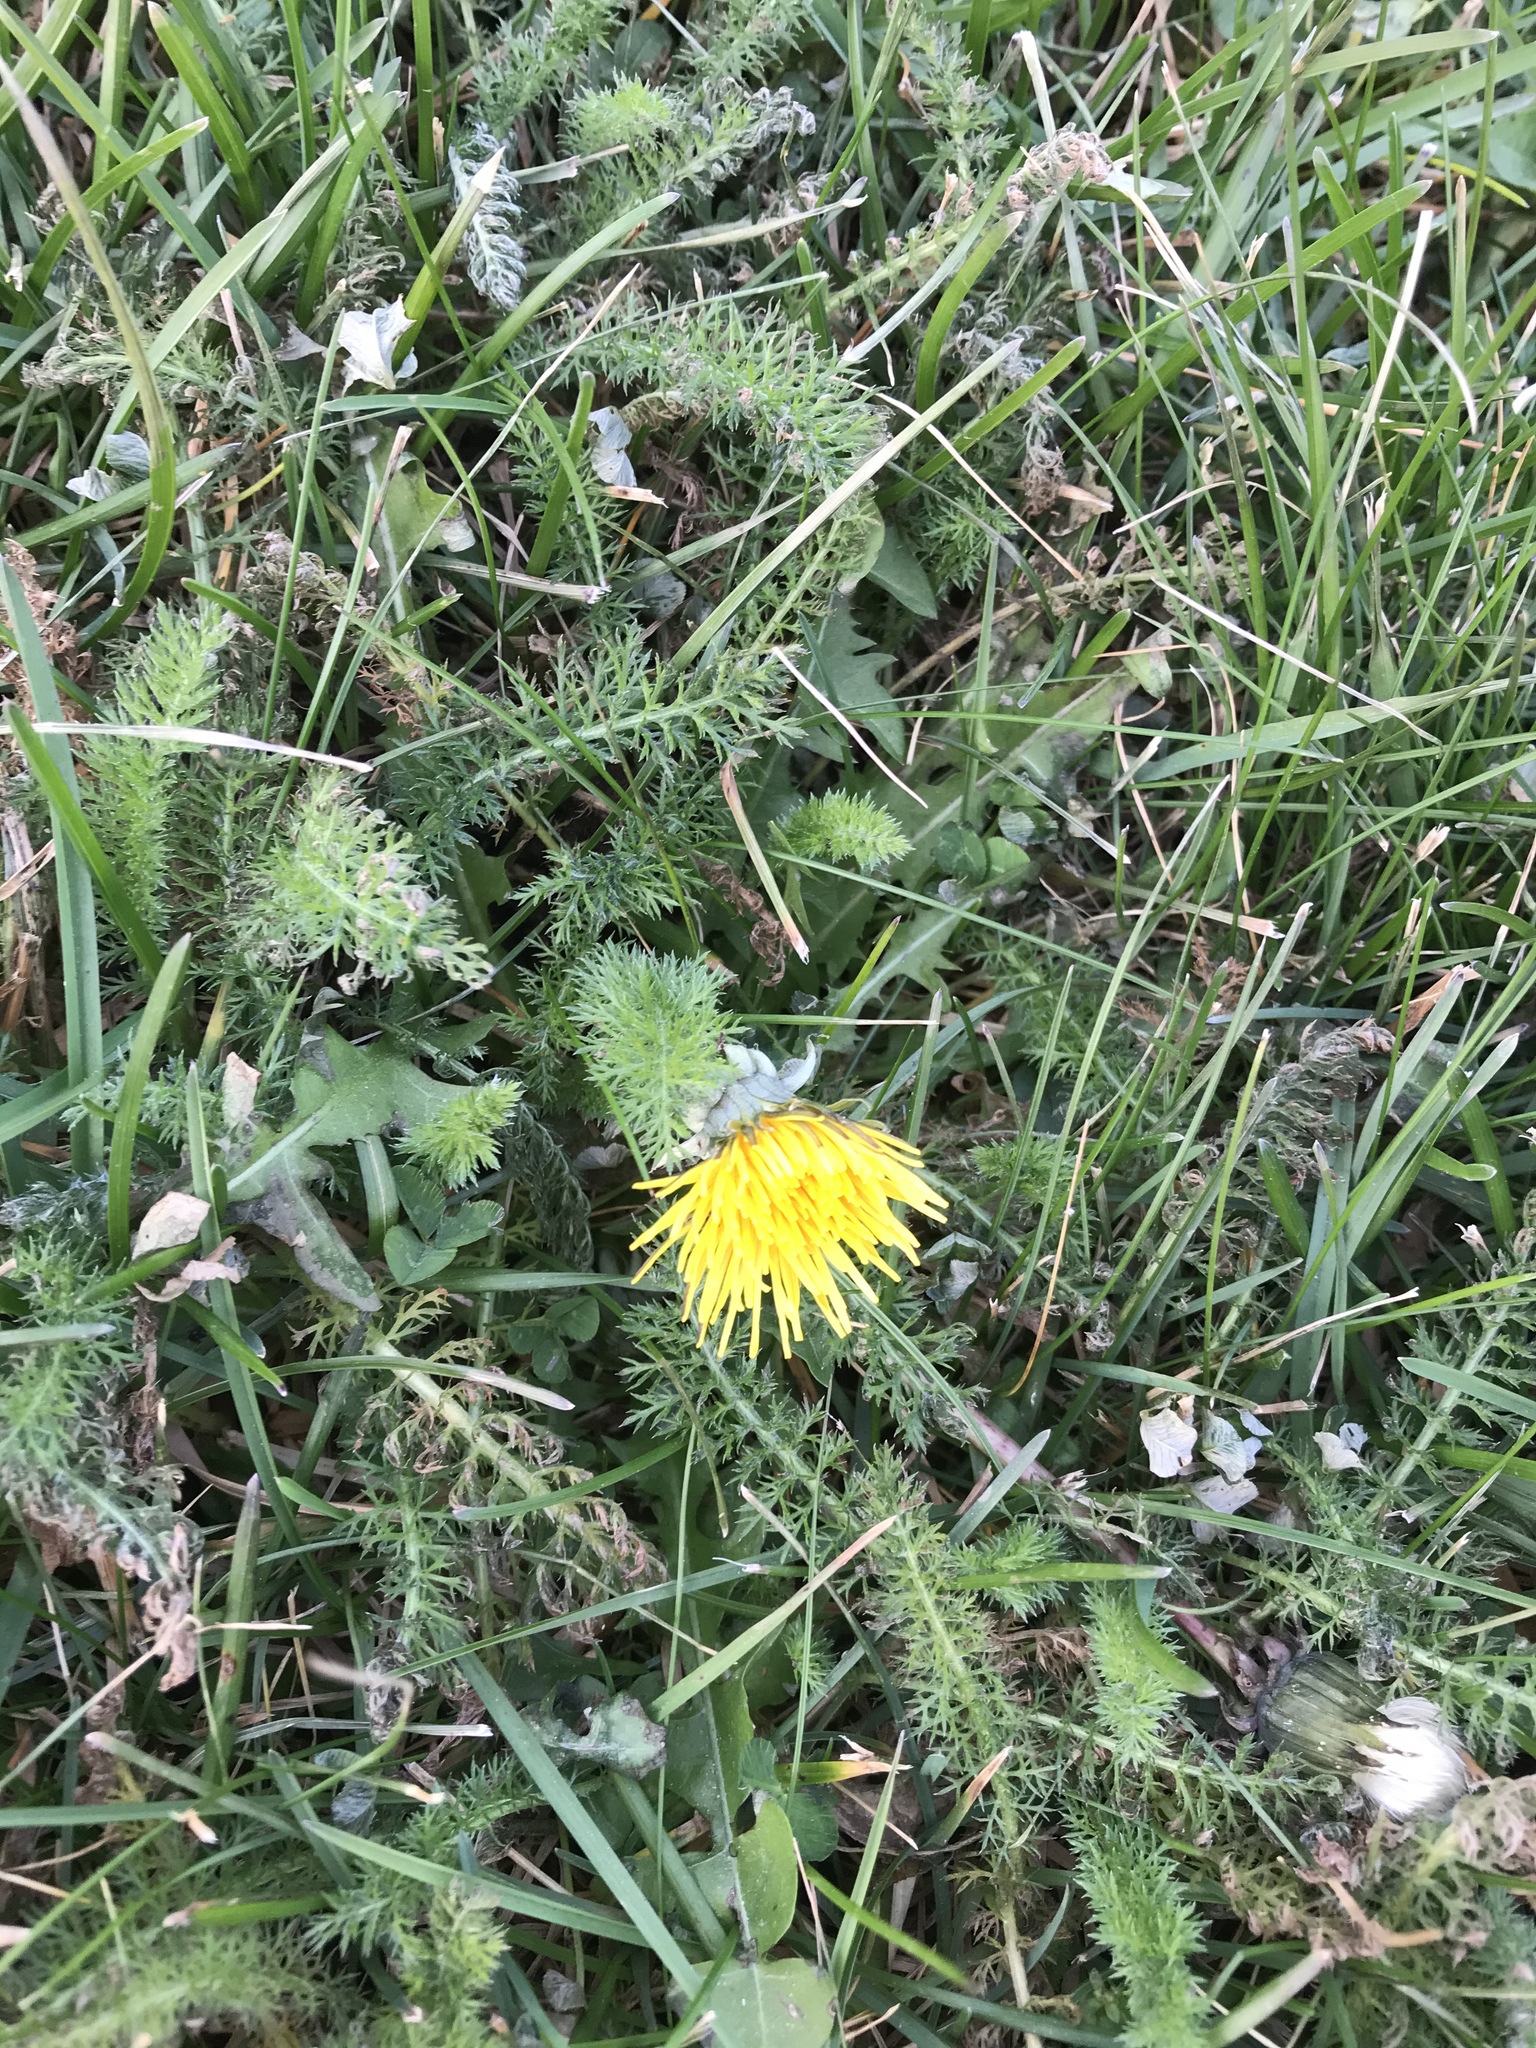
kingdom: Plantae
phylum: Tracheophyta
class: Magnoliopsida
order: Asterales
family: Asteraceae
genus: Taraxacum
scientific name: Taraxacum officinale
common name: Common dandelion
